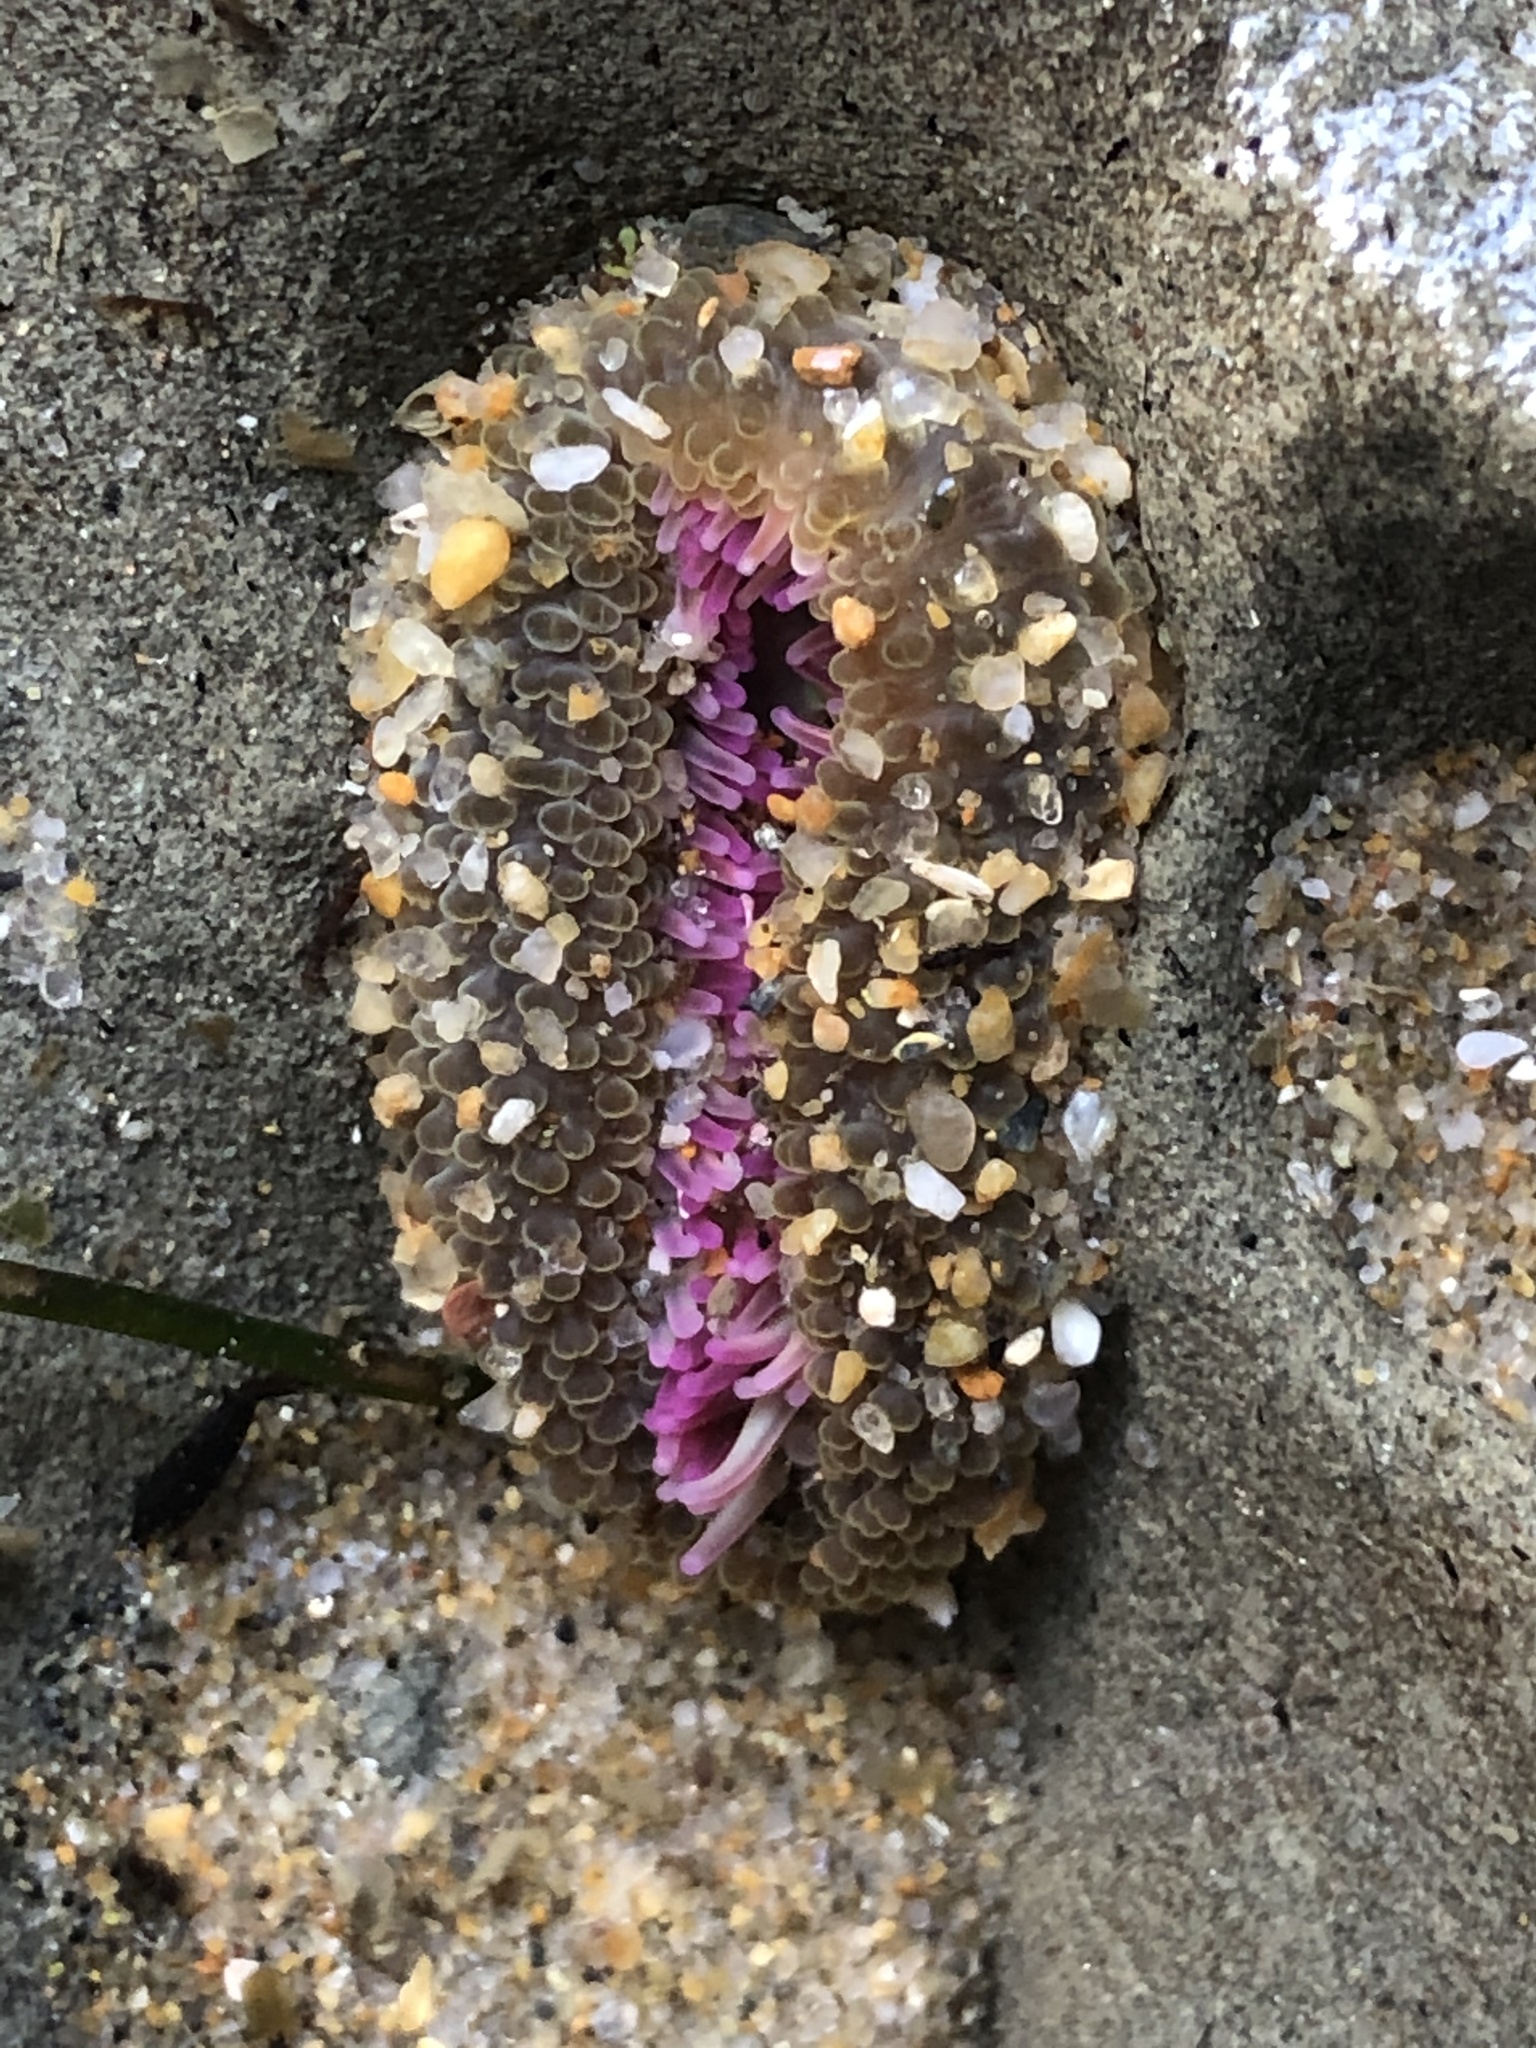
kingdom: Animalia
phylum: Cnidaria
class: Anthozoa
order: Actiniaria
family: Actiniidae
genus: Anthopleura
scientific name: Anthopleura elegantissima
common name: Clonal anemone
